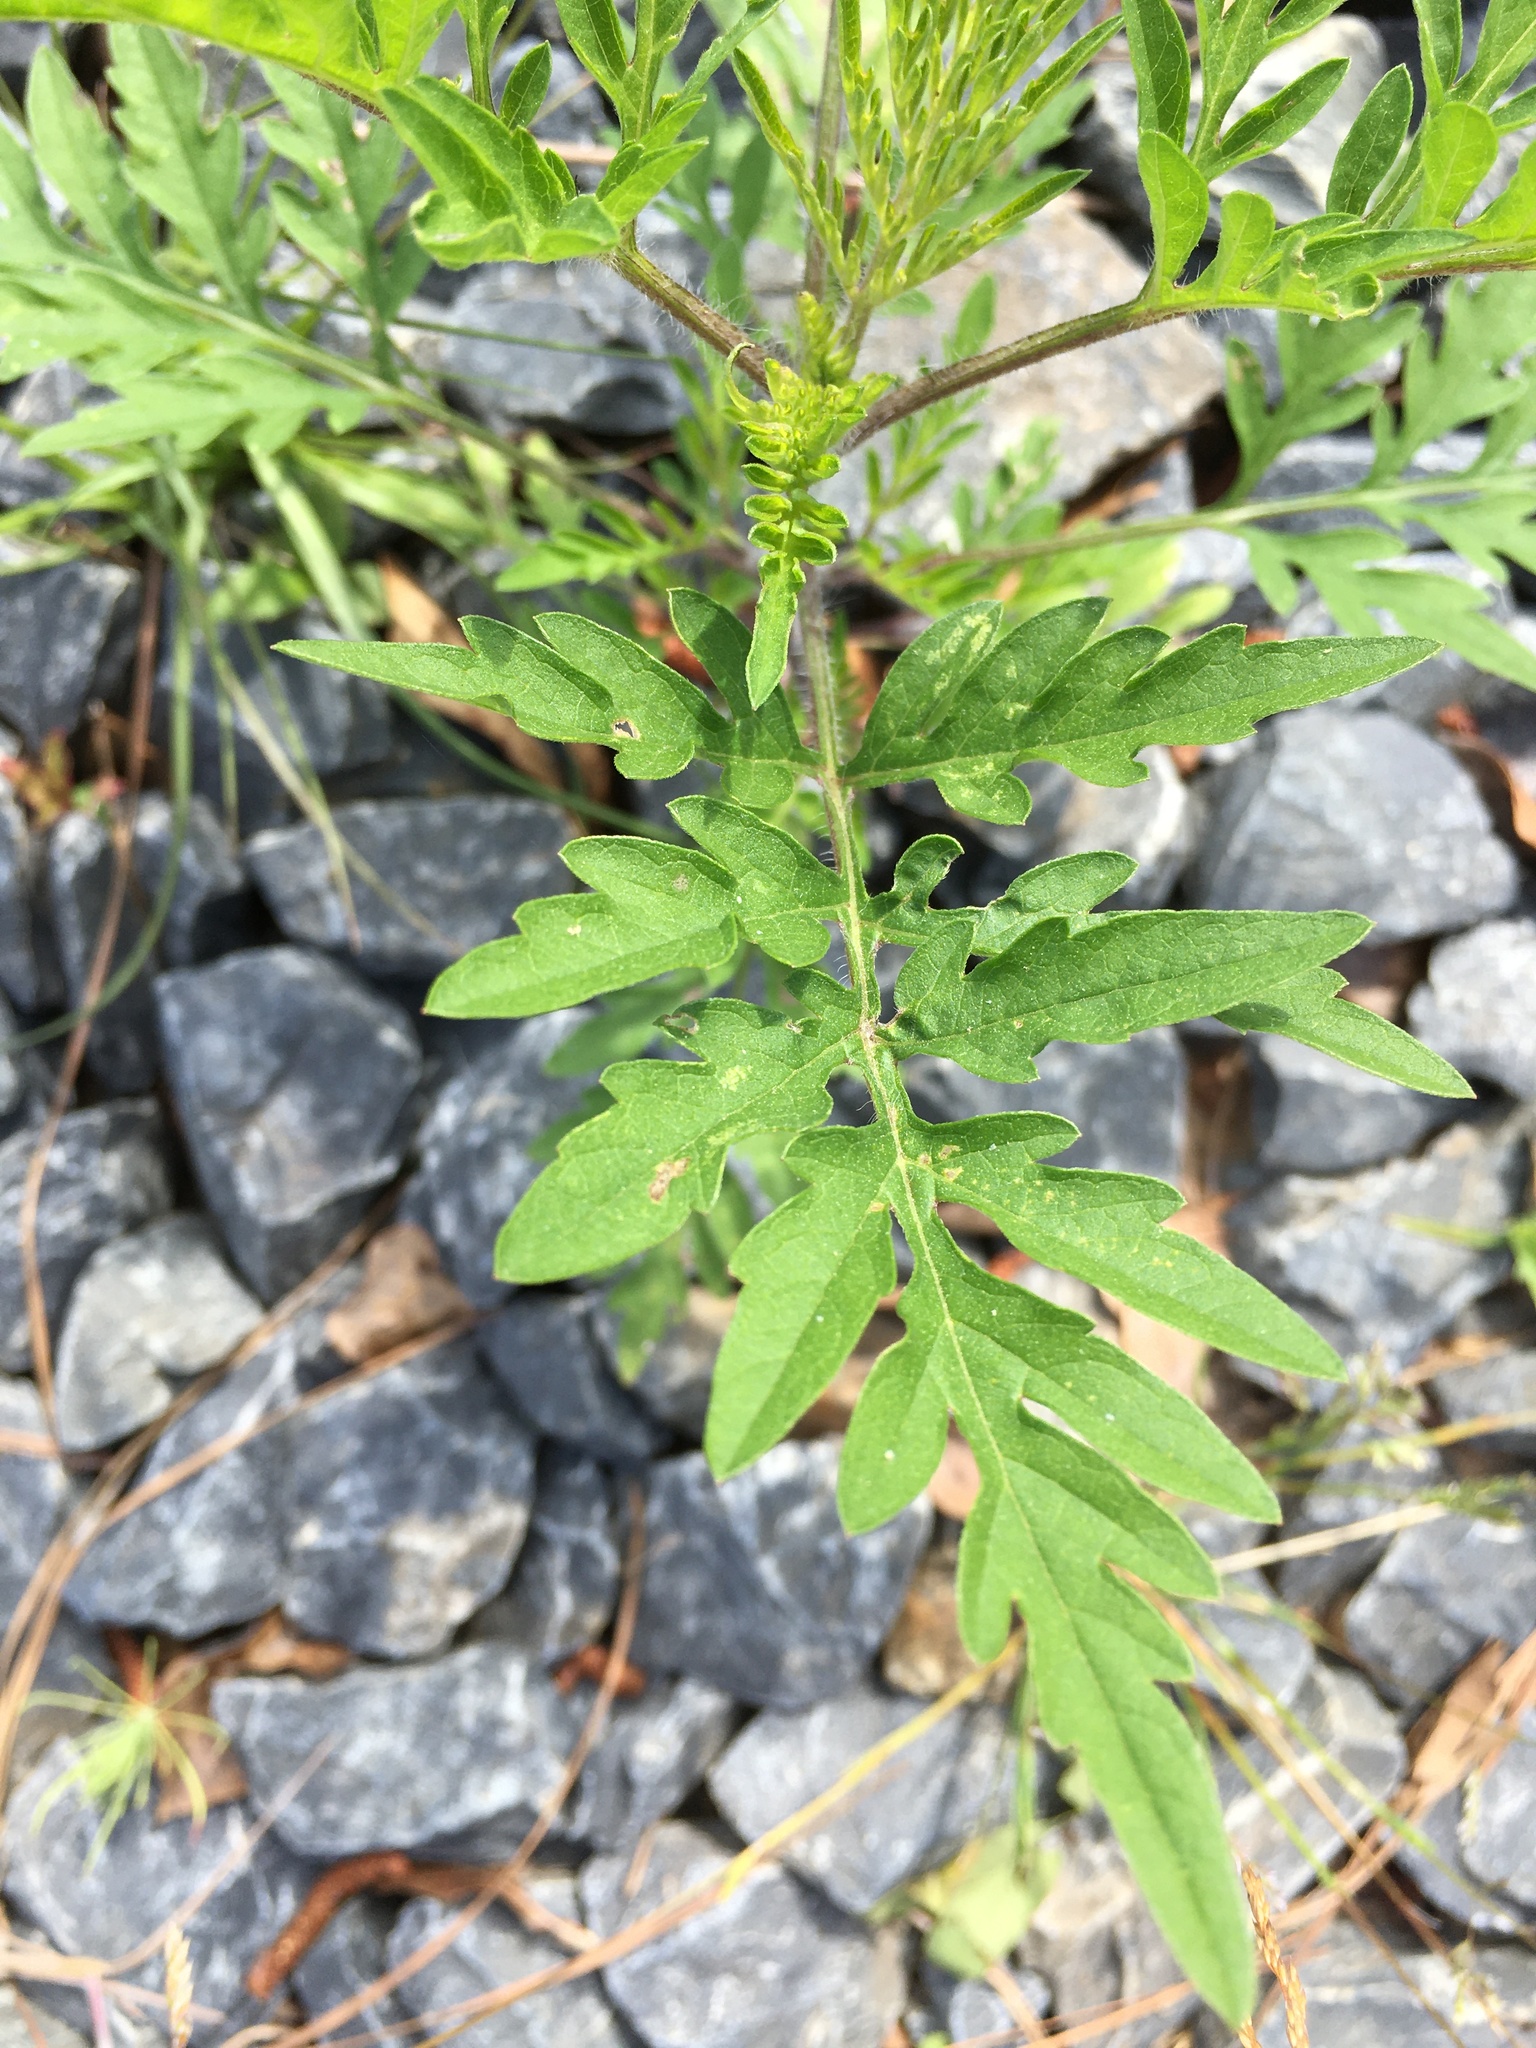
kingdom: Plantae
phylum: Tracheophyta
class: Magnoliopsida
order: Asterales
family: Asteraceae
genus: Ambrosia
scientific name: Ambrosia artemisiifolia
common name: Annual ragweed
